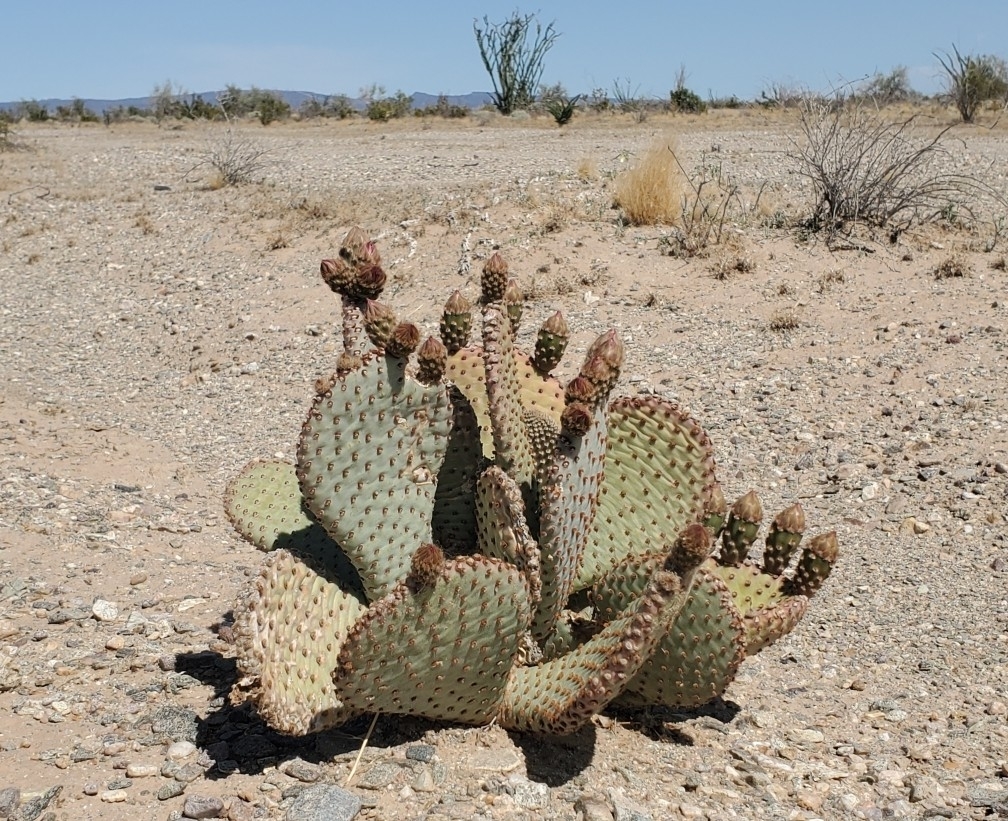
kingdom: Plantae
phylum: Tracheophyta
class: Magnoliopsida
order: Caryophyllales
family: Cactaceae
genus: Opuntia
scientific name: Opuntia basilaris
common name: Beavertail prickly-pear
